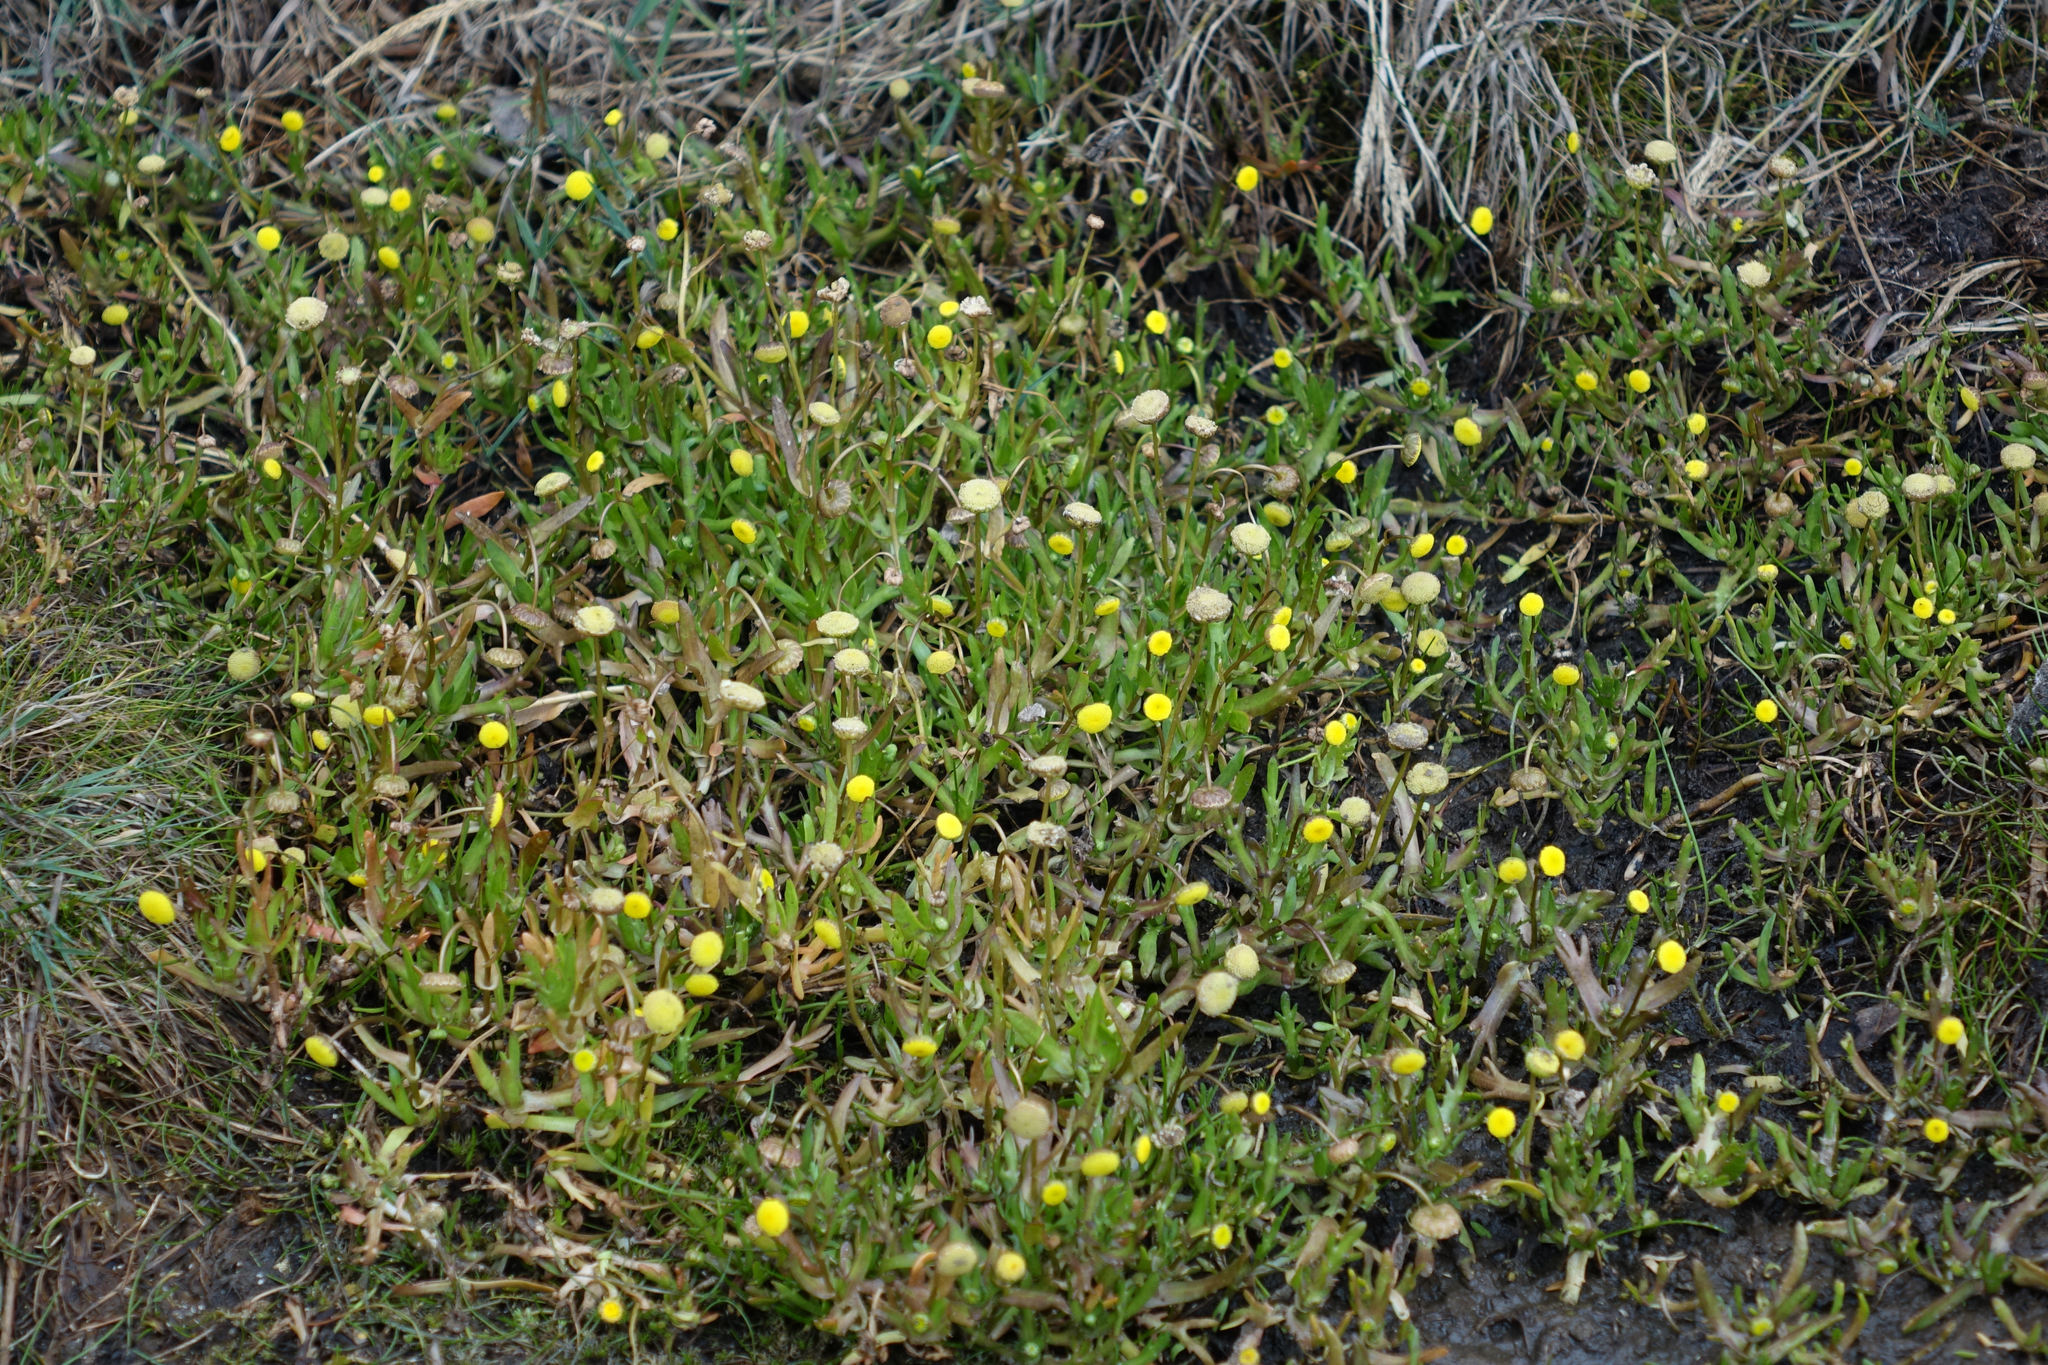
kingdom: Plantae
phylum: Tracheophyta
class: Magnoliopsida
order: Asterales
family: Asteraceae
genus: Cotula
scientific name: Cotula coronopifolia
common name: Buttonweed
